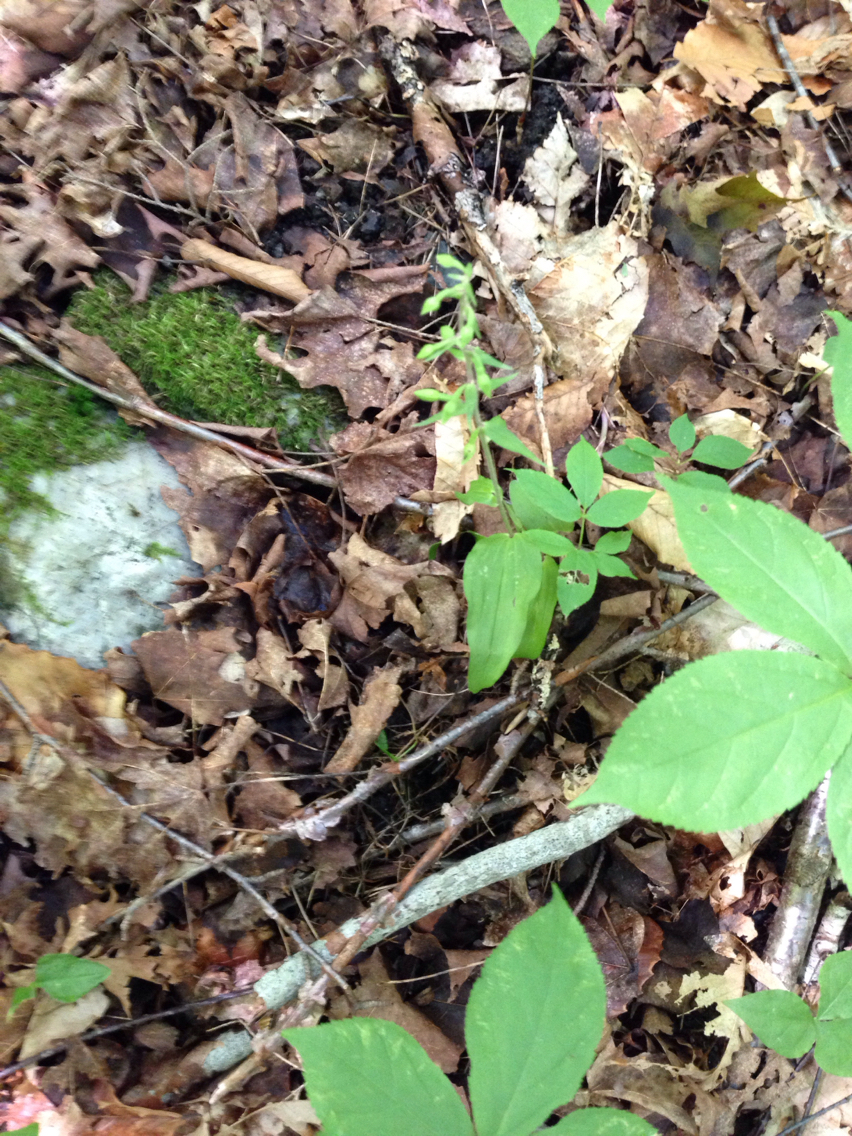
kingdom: Plantae
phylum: Tracheophyta
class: Liliopsida
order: Asparagales
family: Orchidaceae
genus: Epipactis
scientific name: Epipactis helleborine
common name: Broad-leaved helleborine
